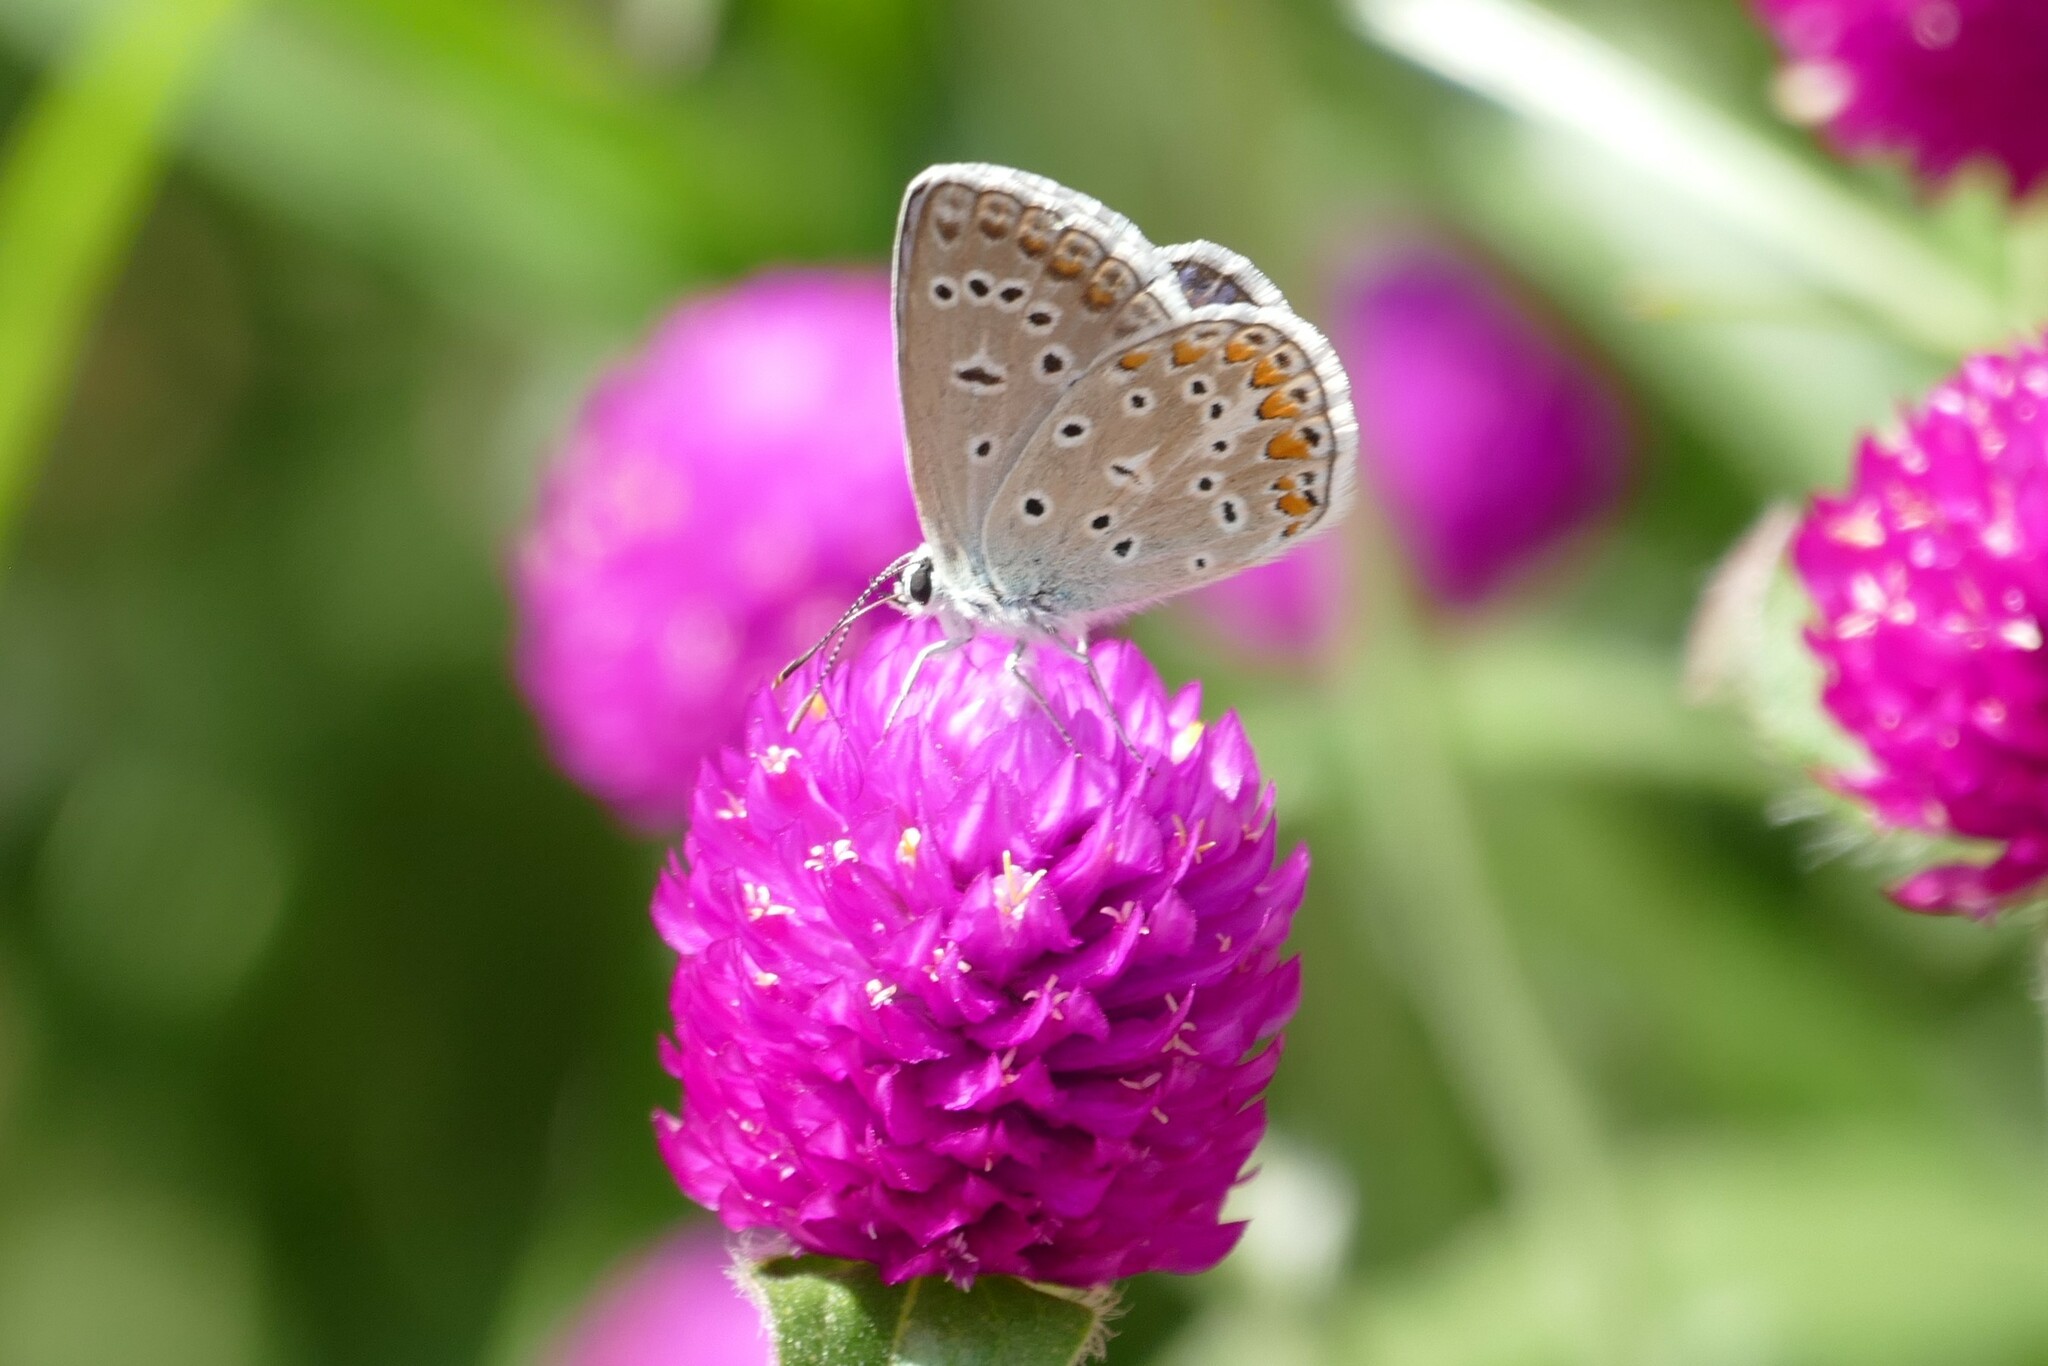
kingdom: Animalia
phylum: Arthropoda
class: Insecta
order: Lepidoptera
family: Lycaenidae
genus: Polyommatus
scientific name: Polyommatus icarus
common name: Common blue
